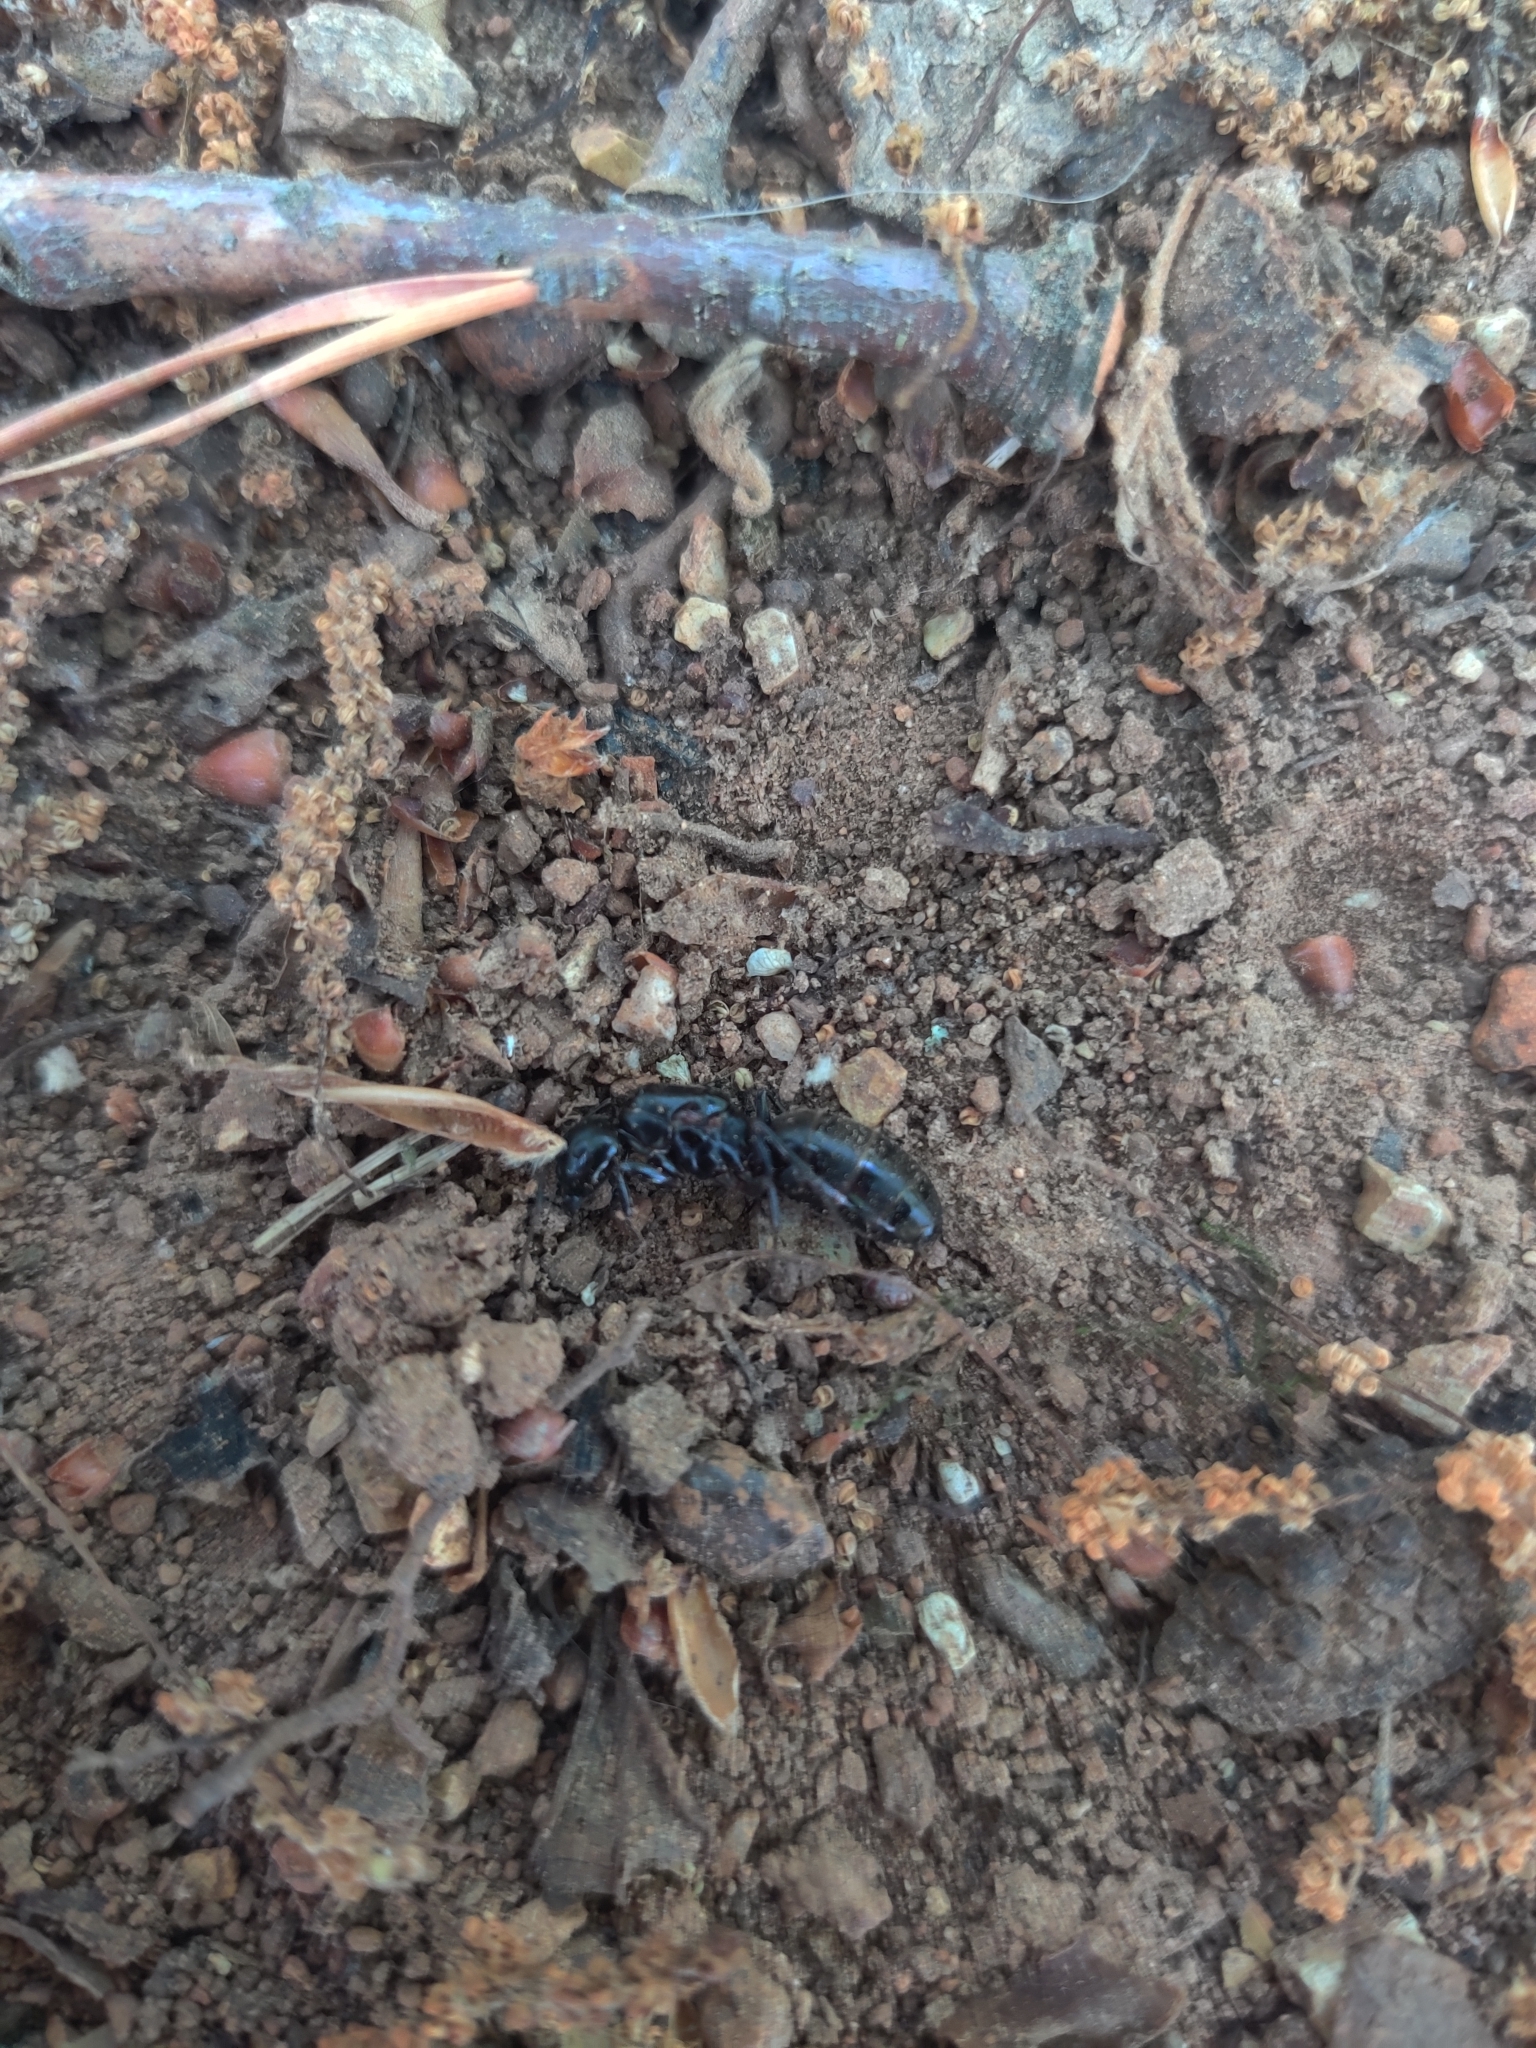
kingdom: Animalia
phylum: Arthropoda
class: Insecta
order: Hymenoptera
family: Formicidae
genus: Camponotus
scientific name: Camponotus pennsylvanicus
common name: Black carpenter ant
